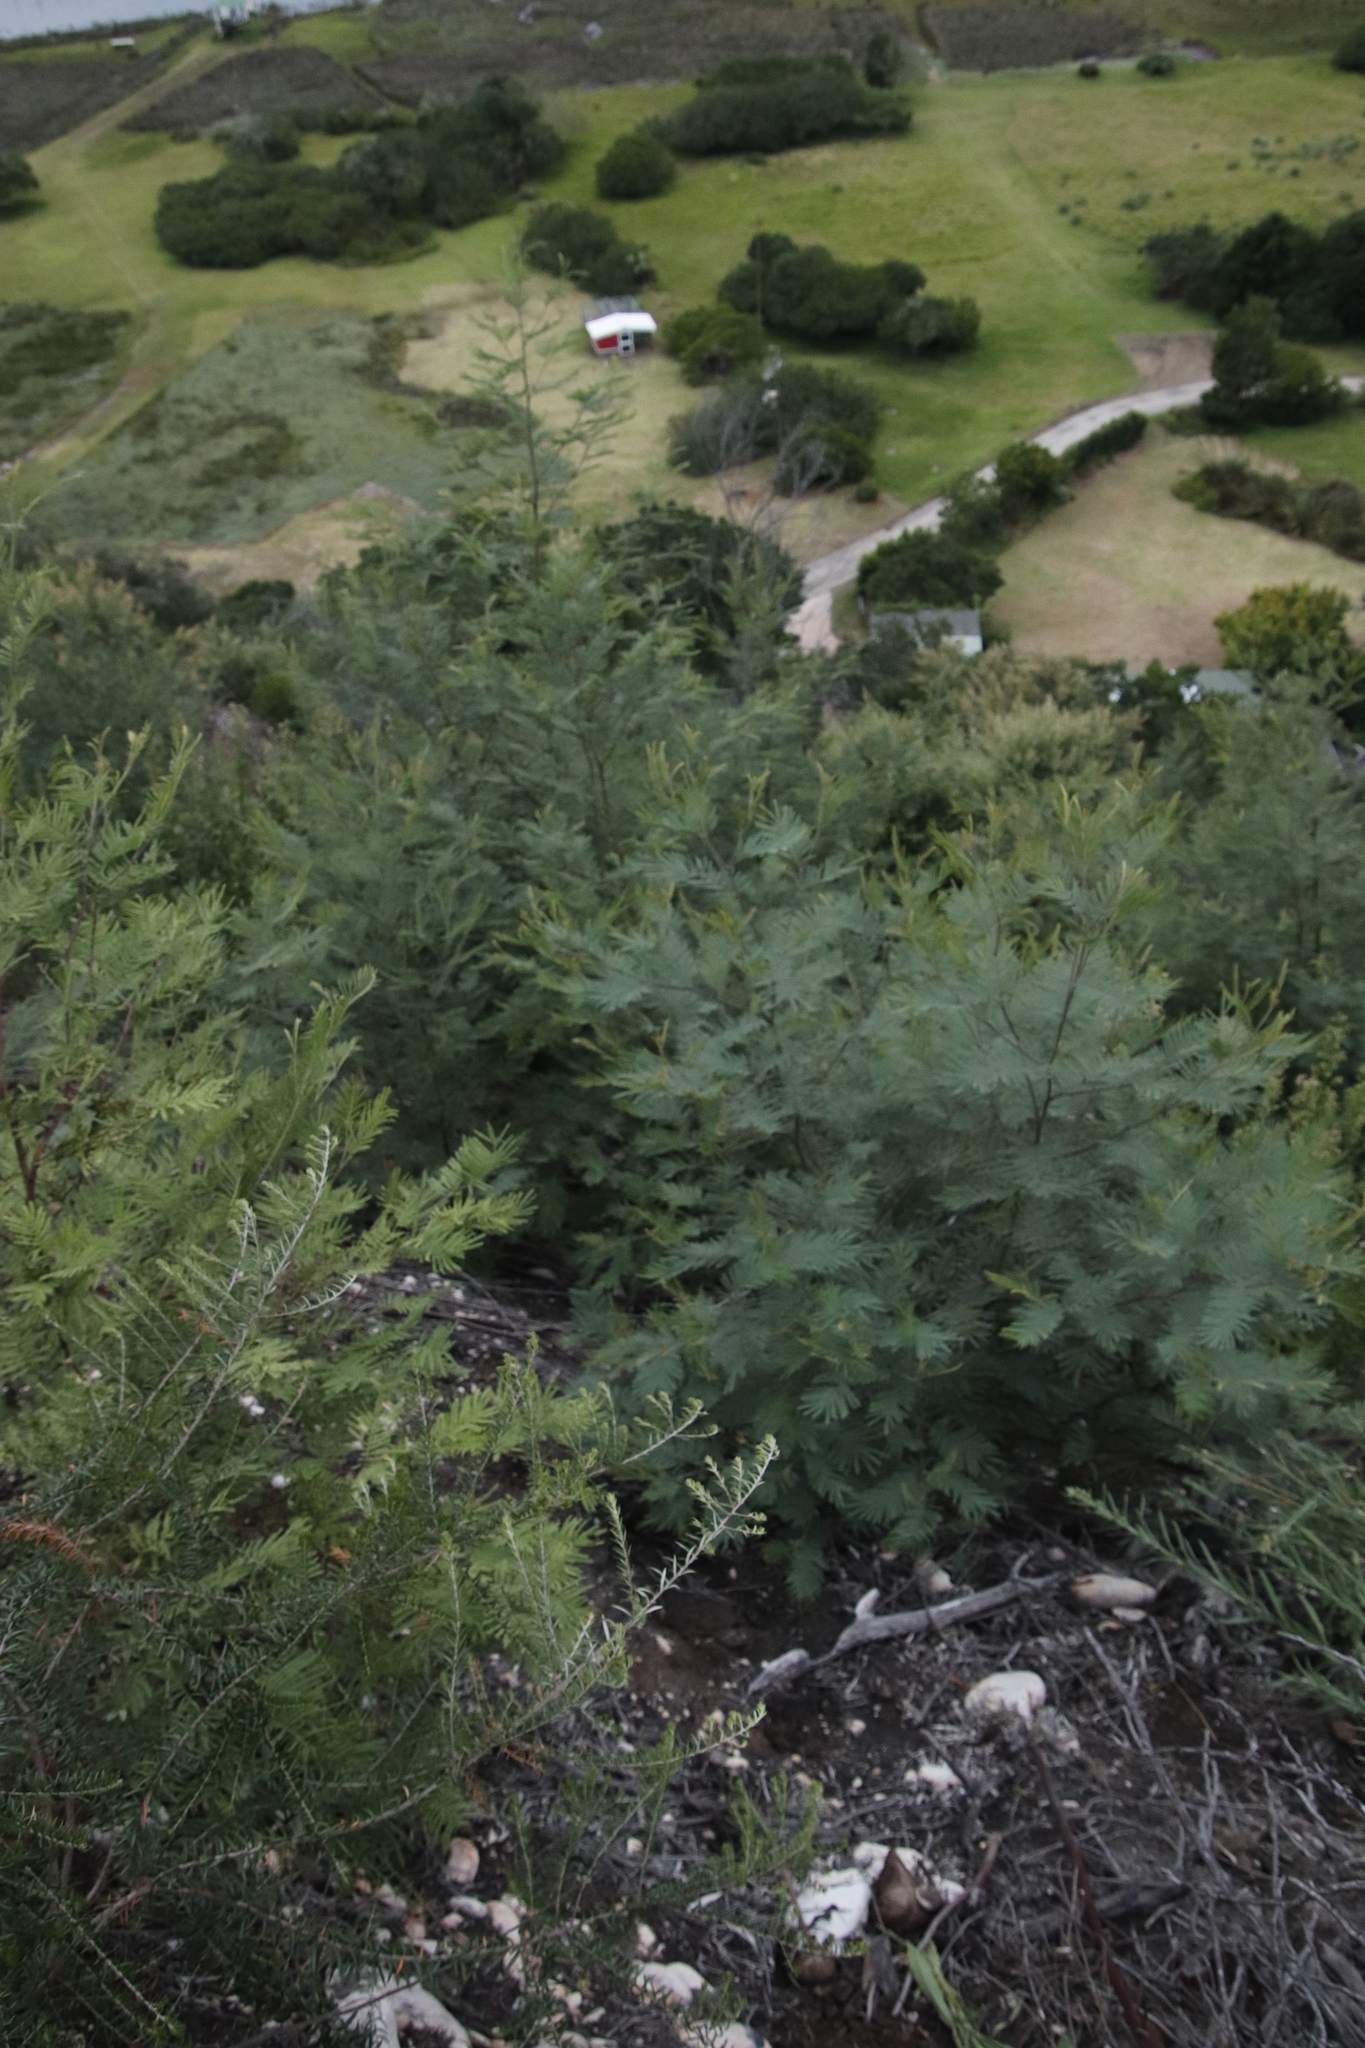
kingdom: Plantae
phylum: Tracheophyta
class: Magnoliopsida
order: Fabales
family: Fabaceae
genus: Acacia
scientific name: Acacia mearnsii
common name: Black wattle
